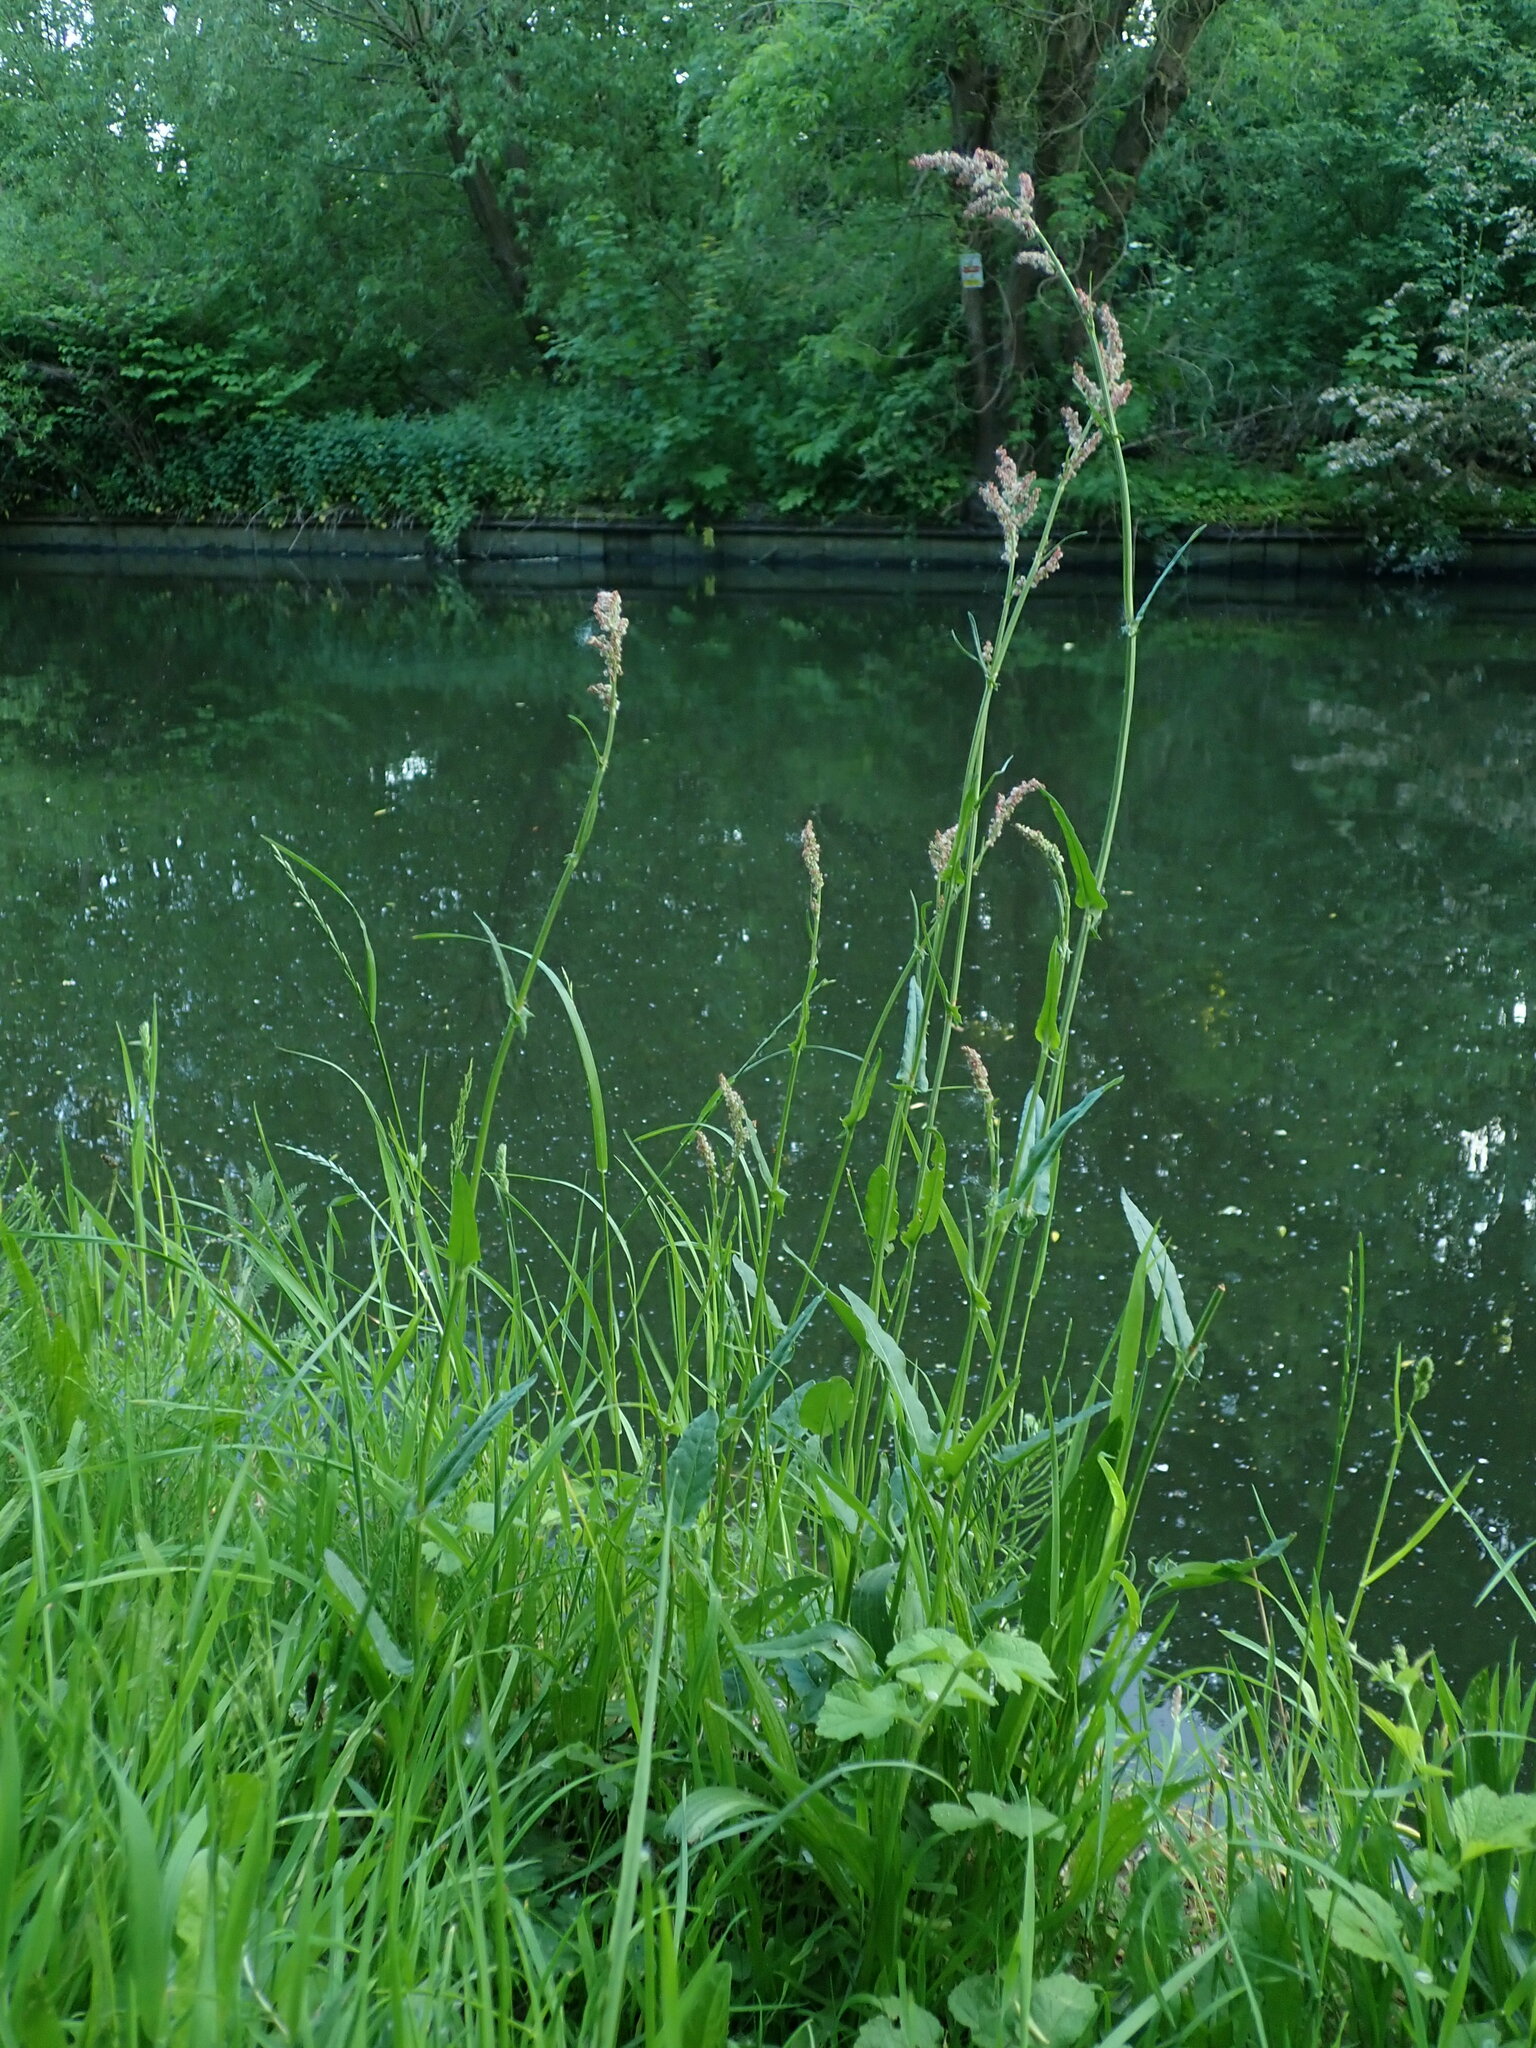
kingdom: Plantae
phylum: Tracheophyta
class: Magnoliopsida
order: Caryophyllales
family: Polygonaceae
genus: Rumex
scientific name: Rumex acetosa
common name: Garden sorrel
